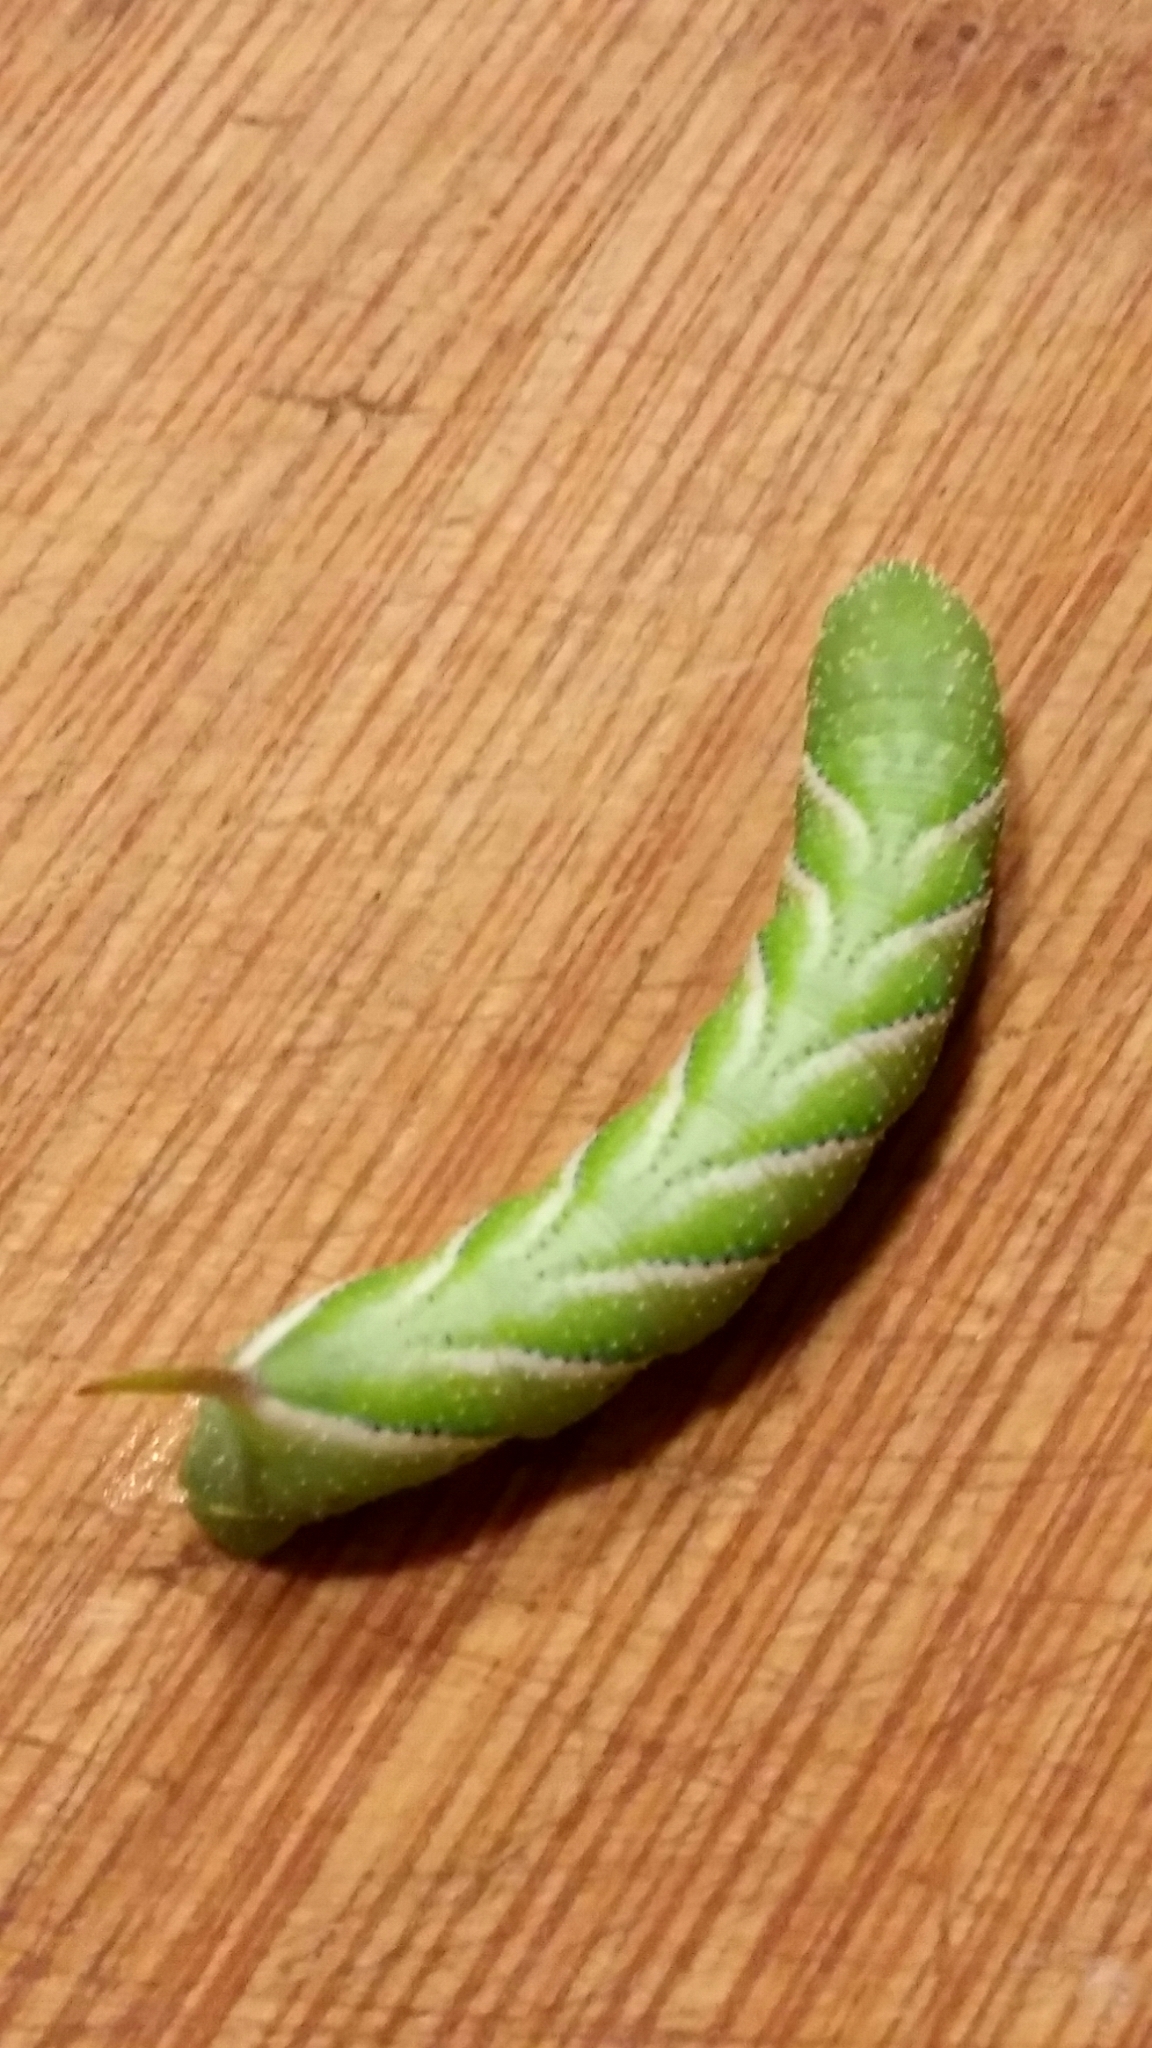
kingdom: Animalia
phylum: Arthropoda
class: Insecta
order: Lepidoptera
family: Sphingidae
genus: Manduca
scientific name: Manduca sexta
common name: Carolina sphinx
